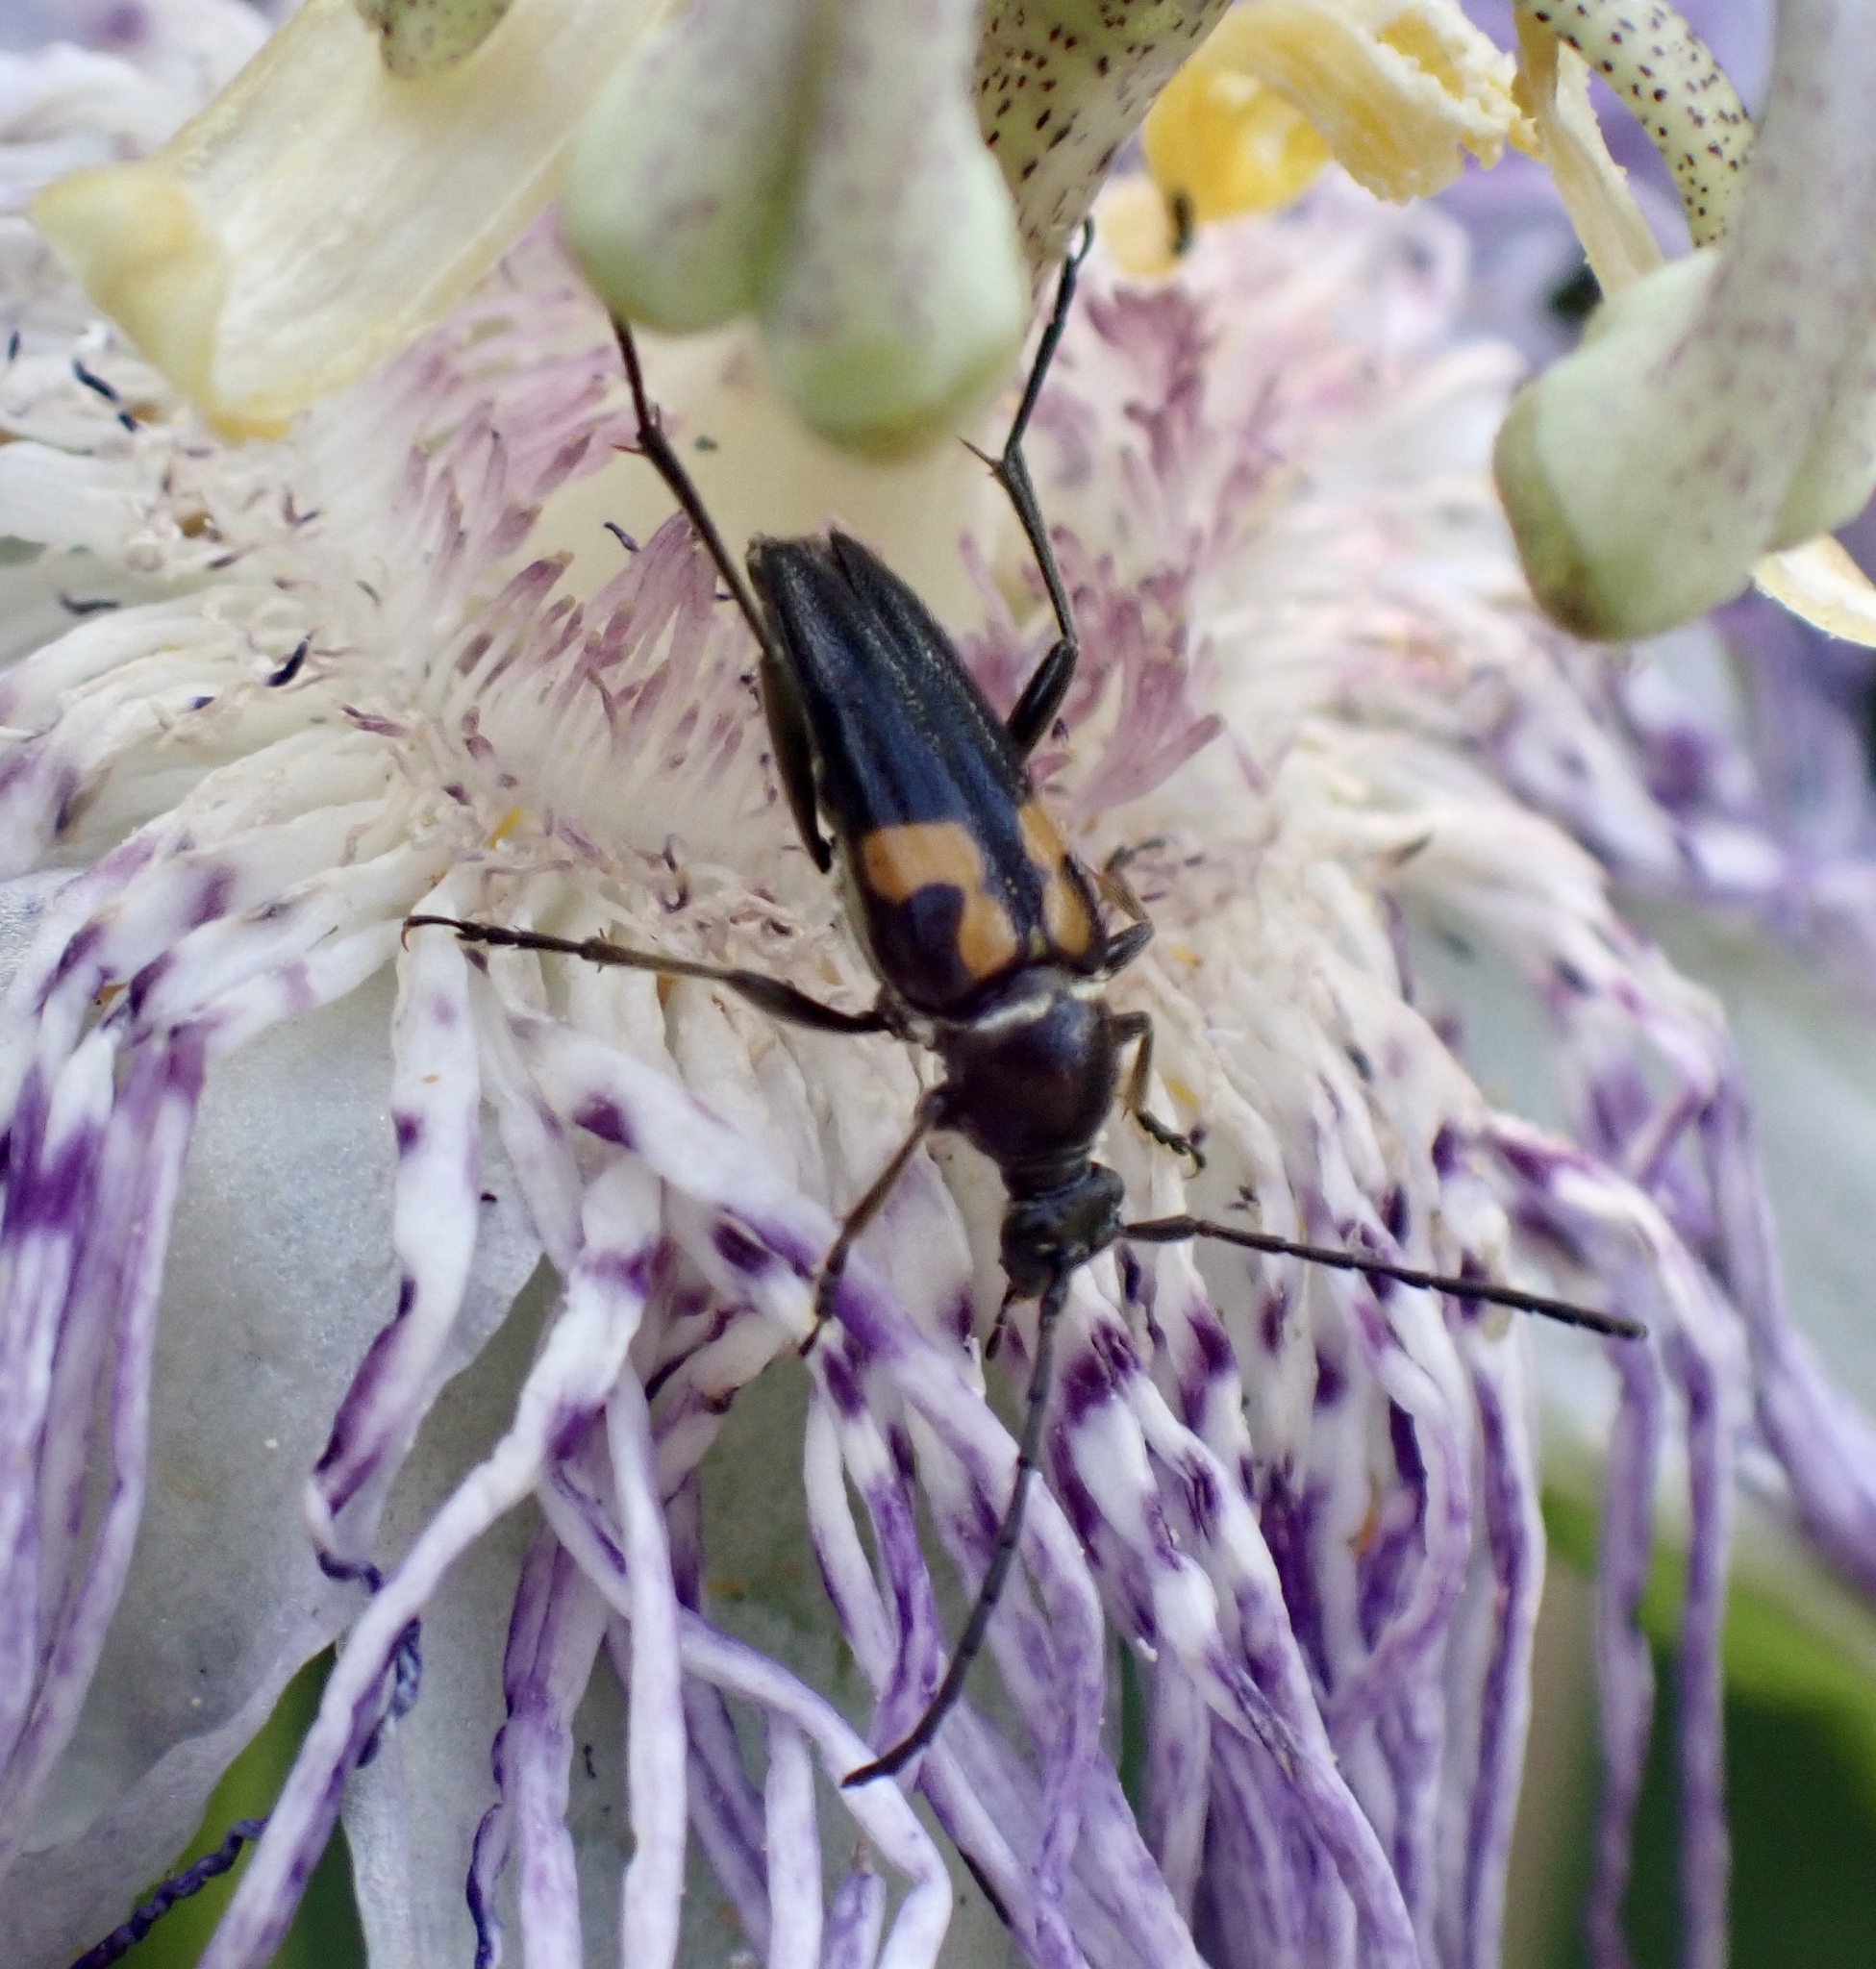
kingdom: Animalia
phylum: Arthropoda
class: Insecta
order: Coleoptera
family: Cerambycidae
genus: Typocerus
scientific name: Typocerus lunulatus
